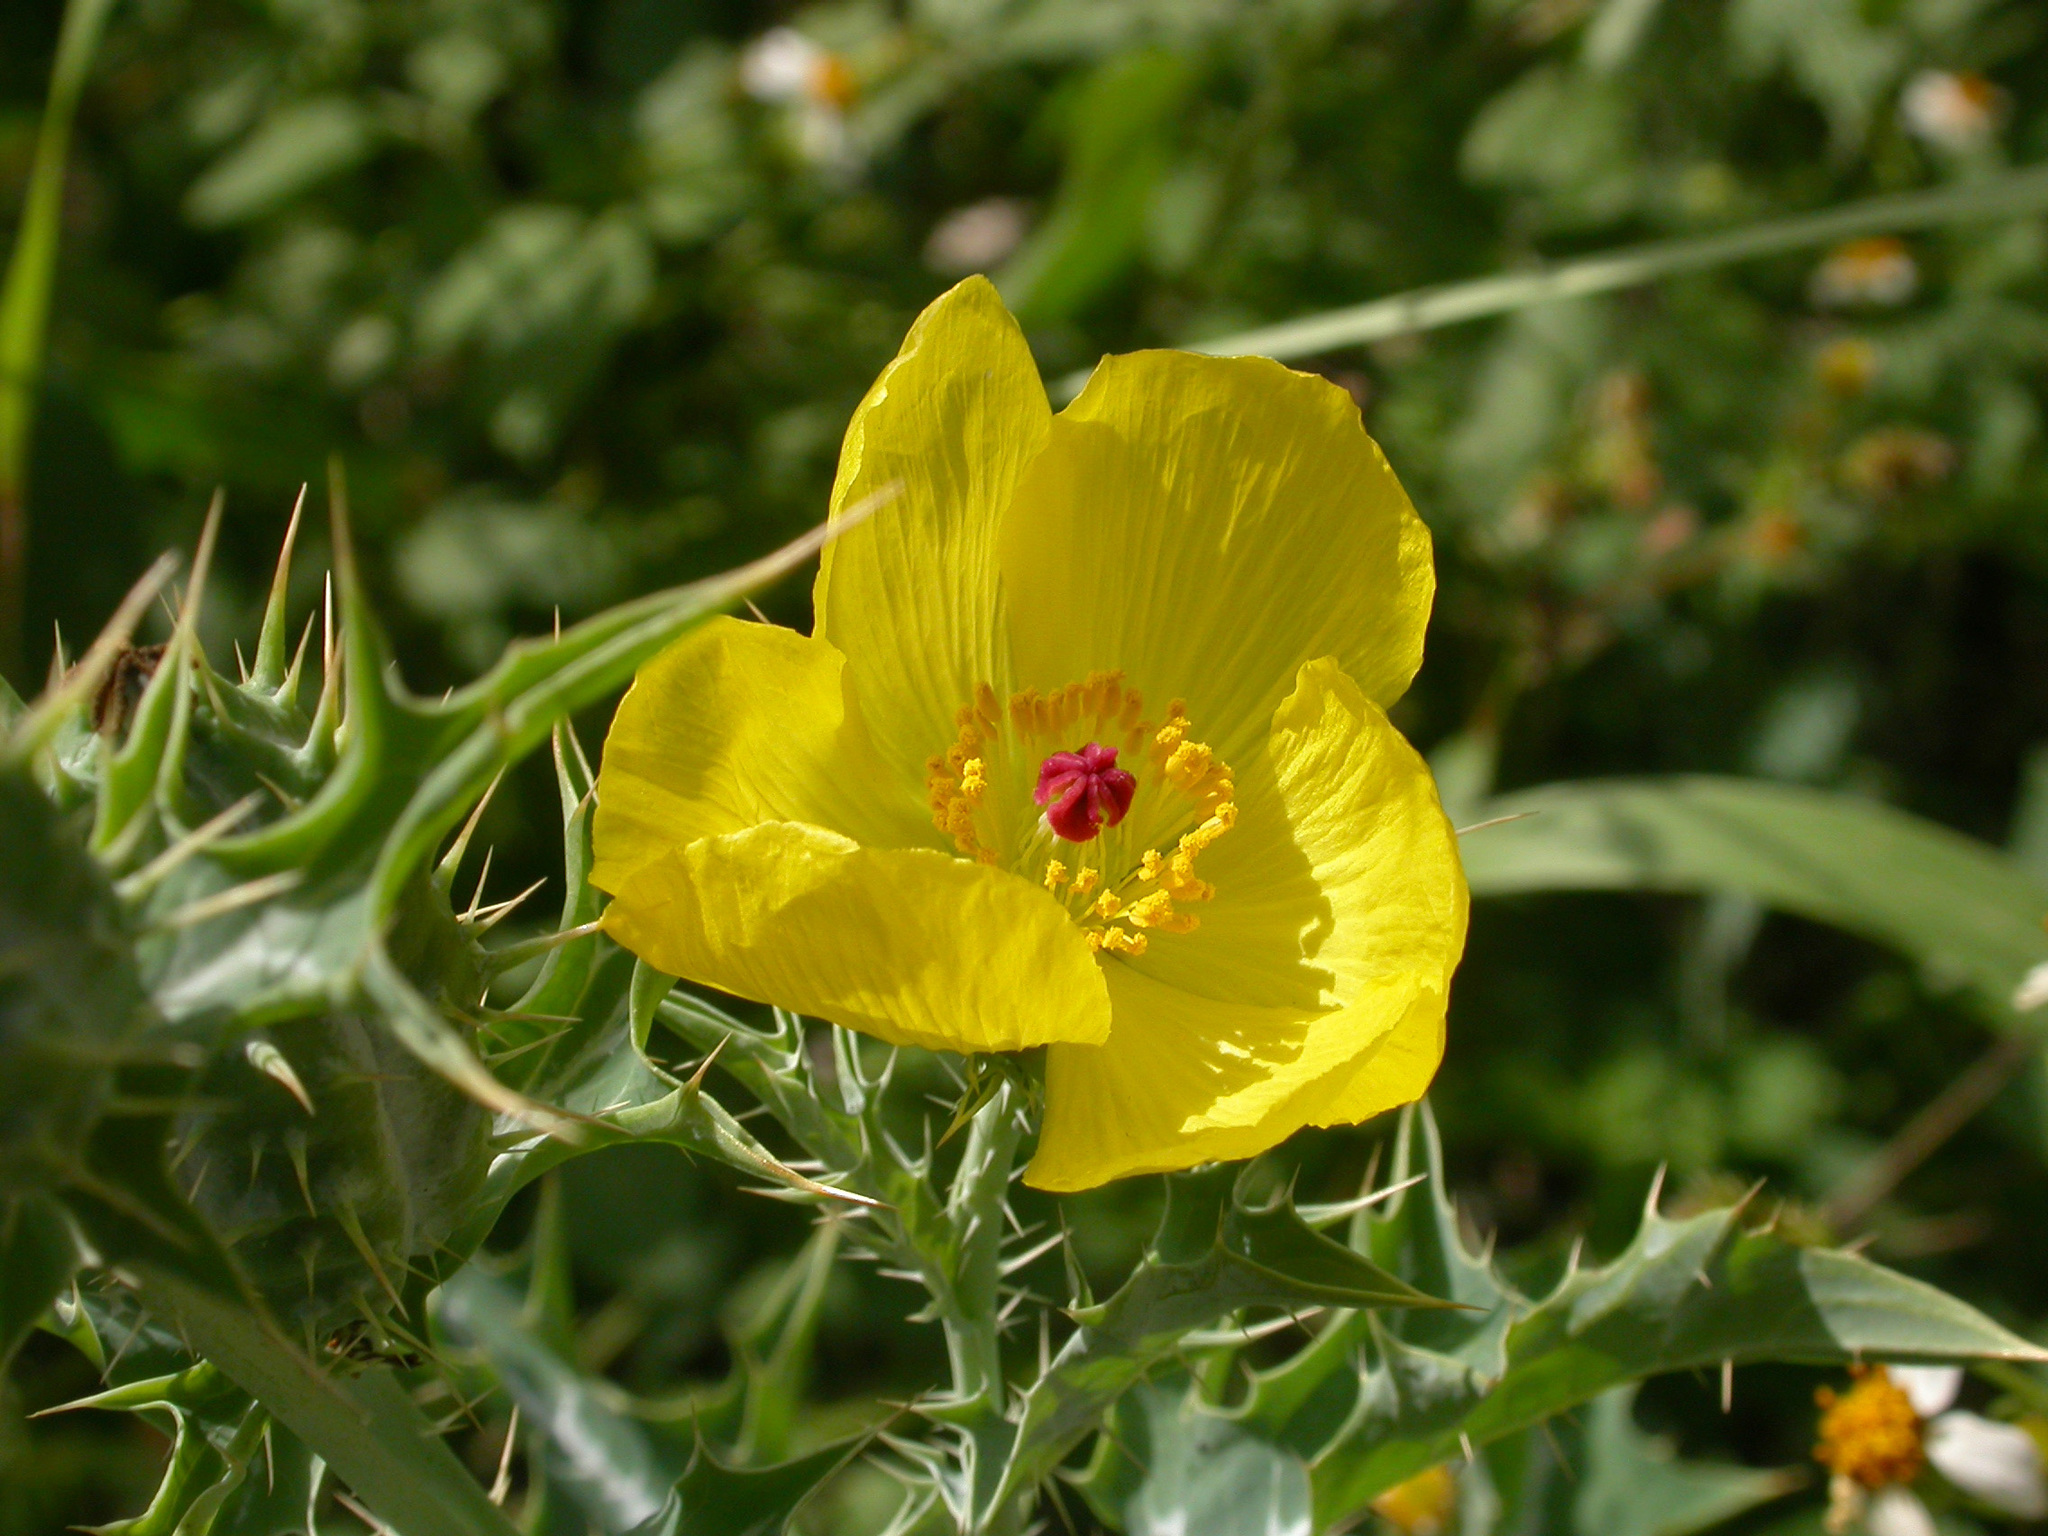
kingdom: Plantae
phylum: Tracheophyta
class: Magnoliopsida
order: Ranunculales
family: Papaveraceae
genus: Argemone
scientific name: Argemone mexicana
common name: Mexican poppy
